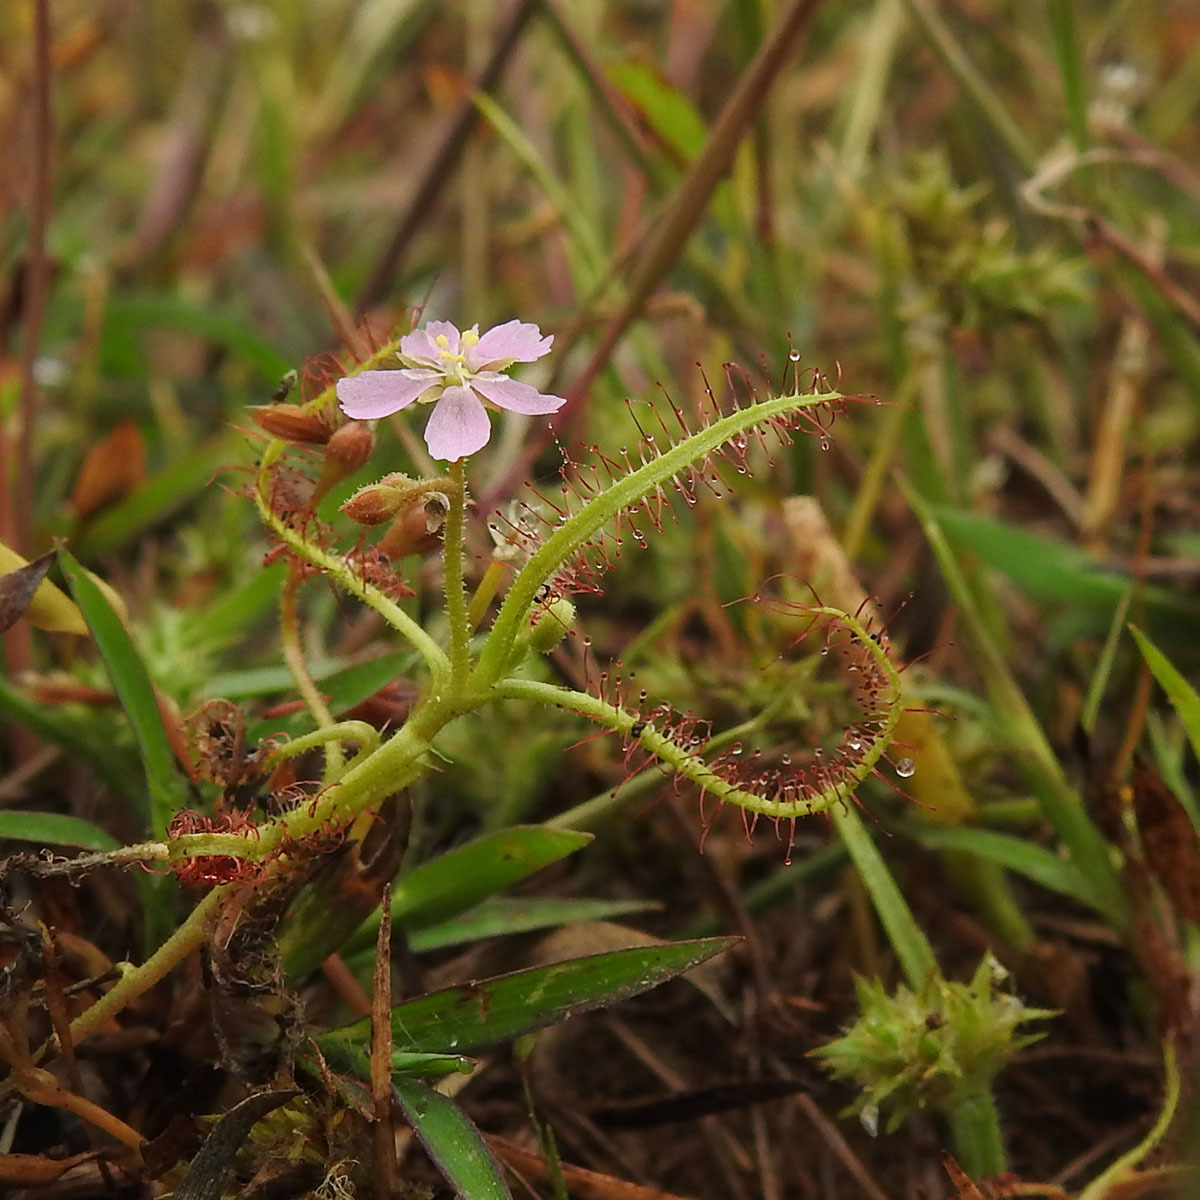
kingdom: Plantae
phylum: Tracheophyta
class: Magnoliopsida
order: Caryophyllales
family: Droseraceae
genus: Drosera
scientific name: Drosera indica
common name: Indian sundew
